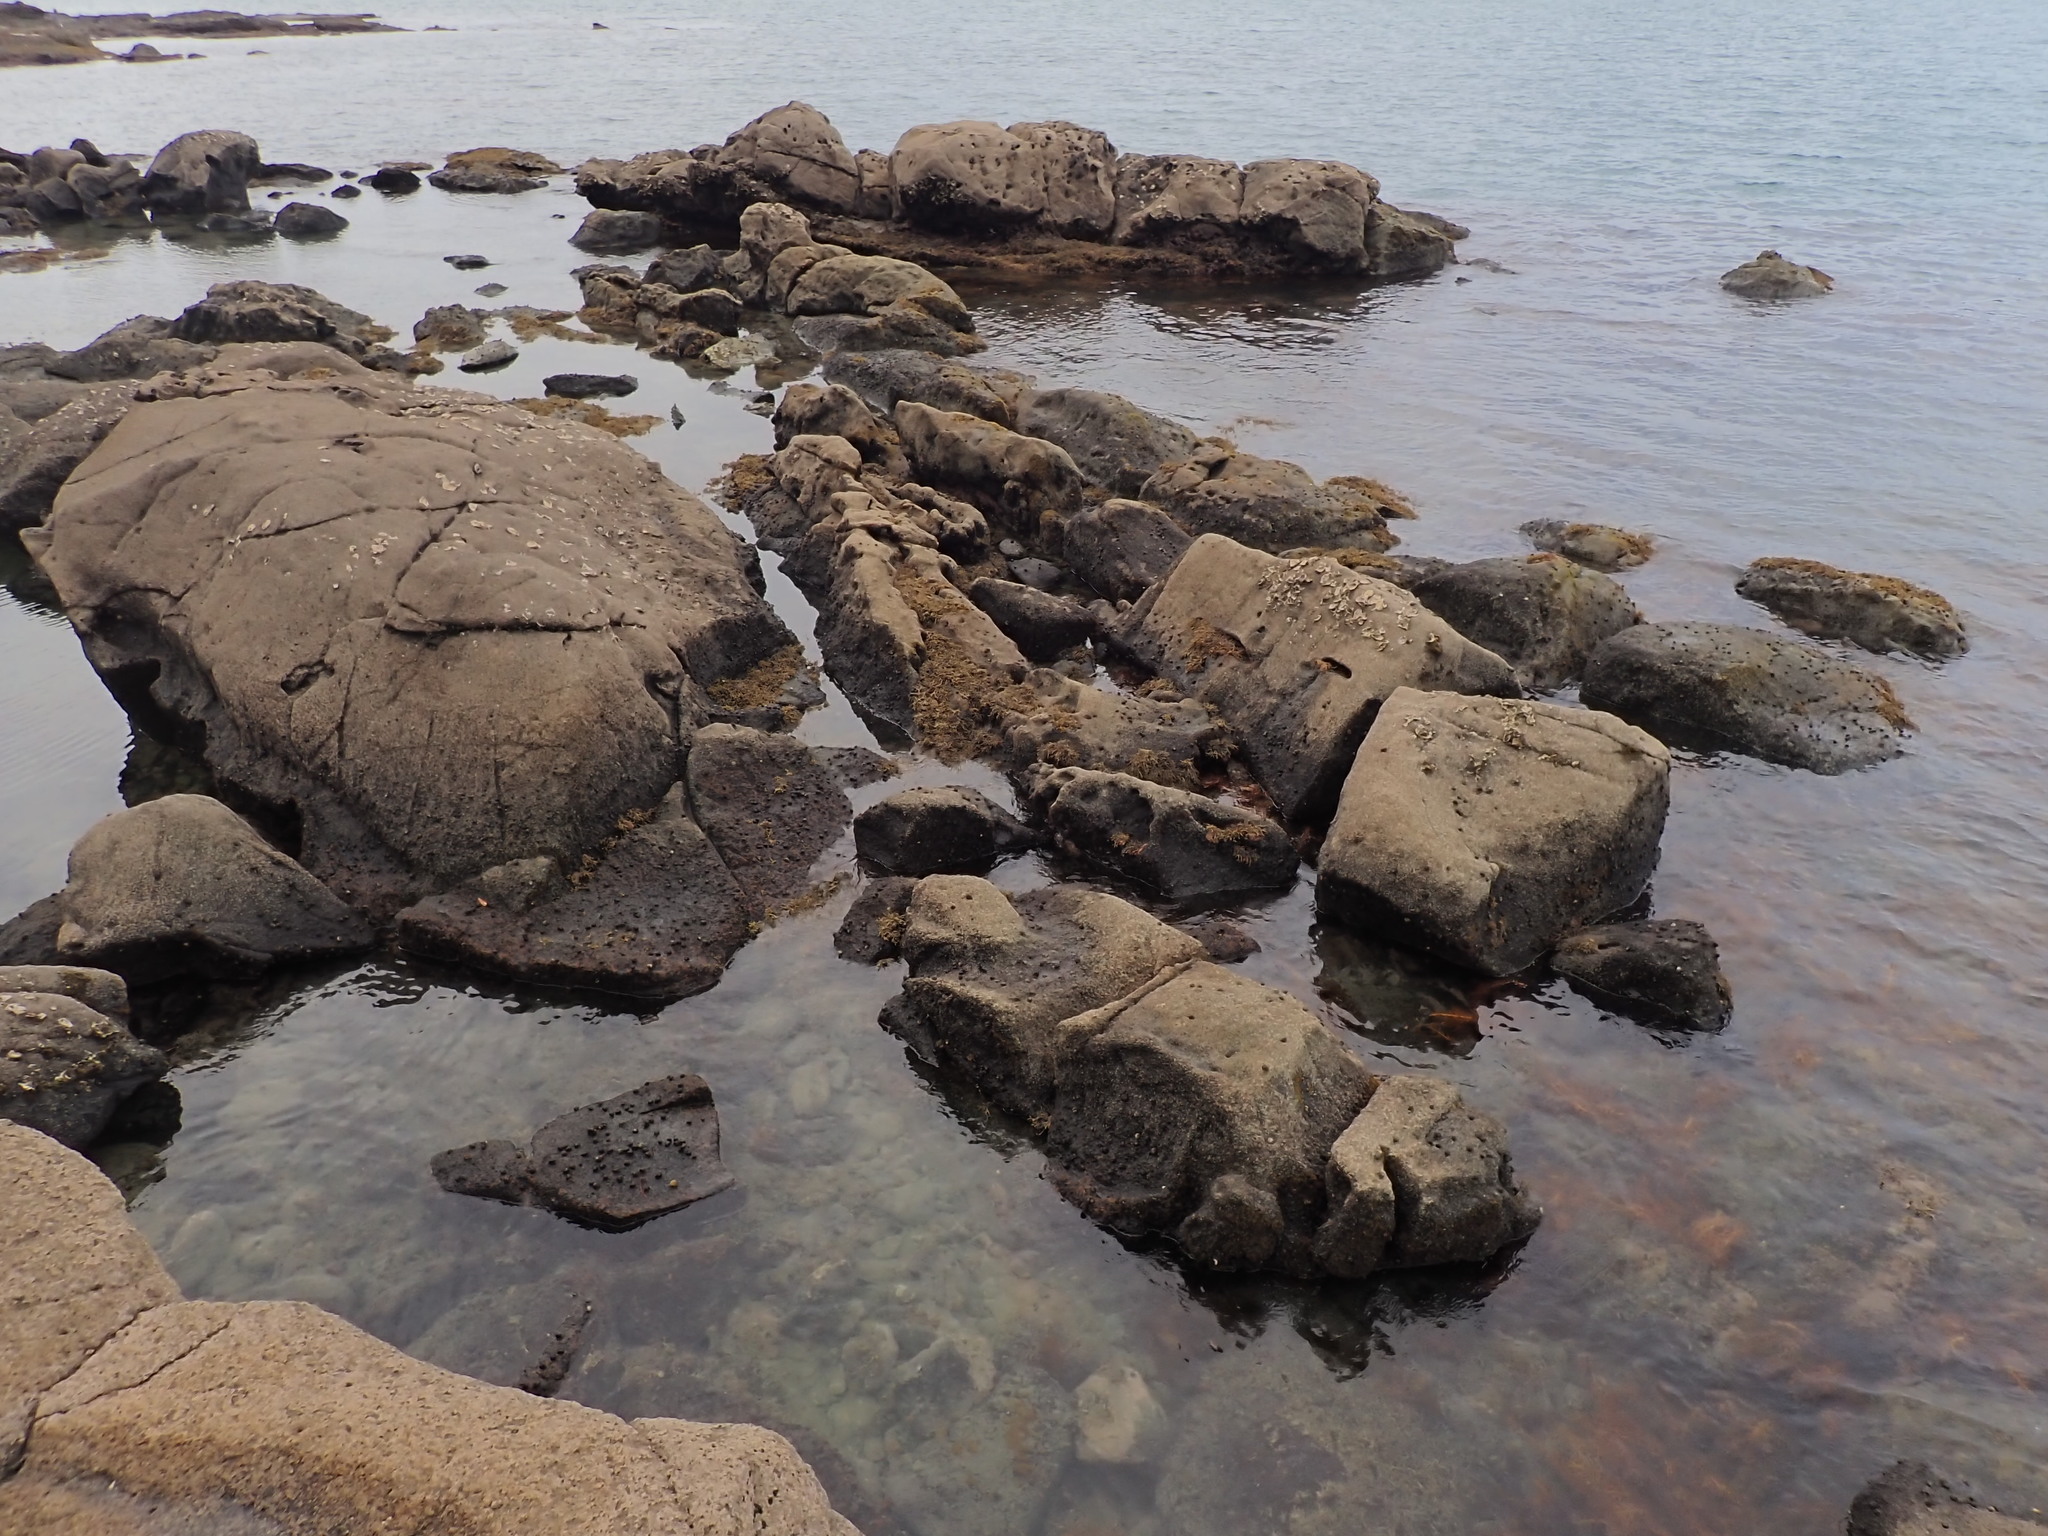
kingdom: Animalia
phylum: Mollusca
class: Gastropoda
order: Trochida
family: Turbinidae
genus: Lunella
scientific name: Lunella smaragda
